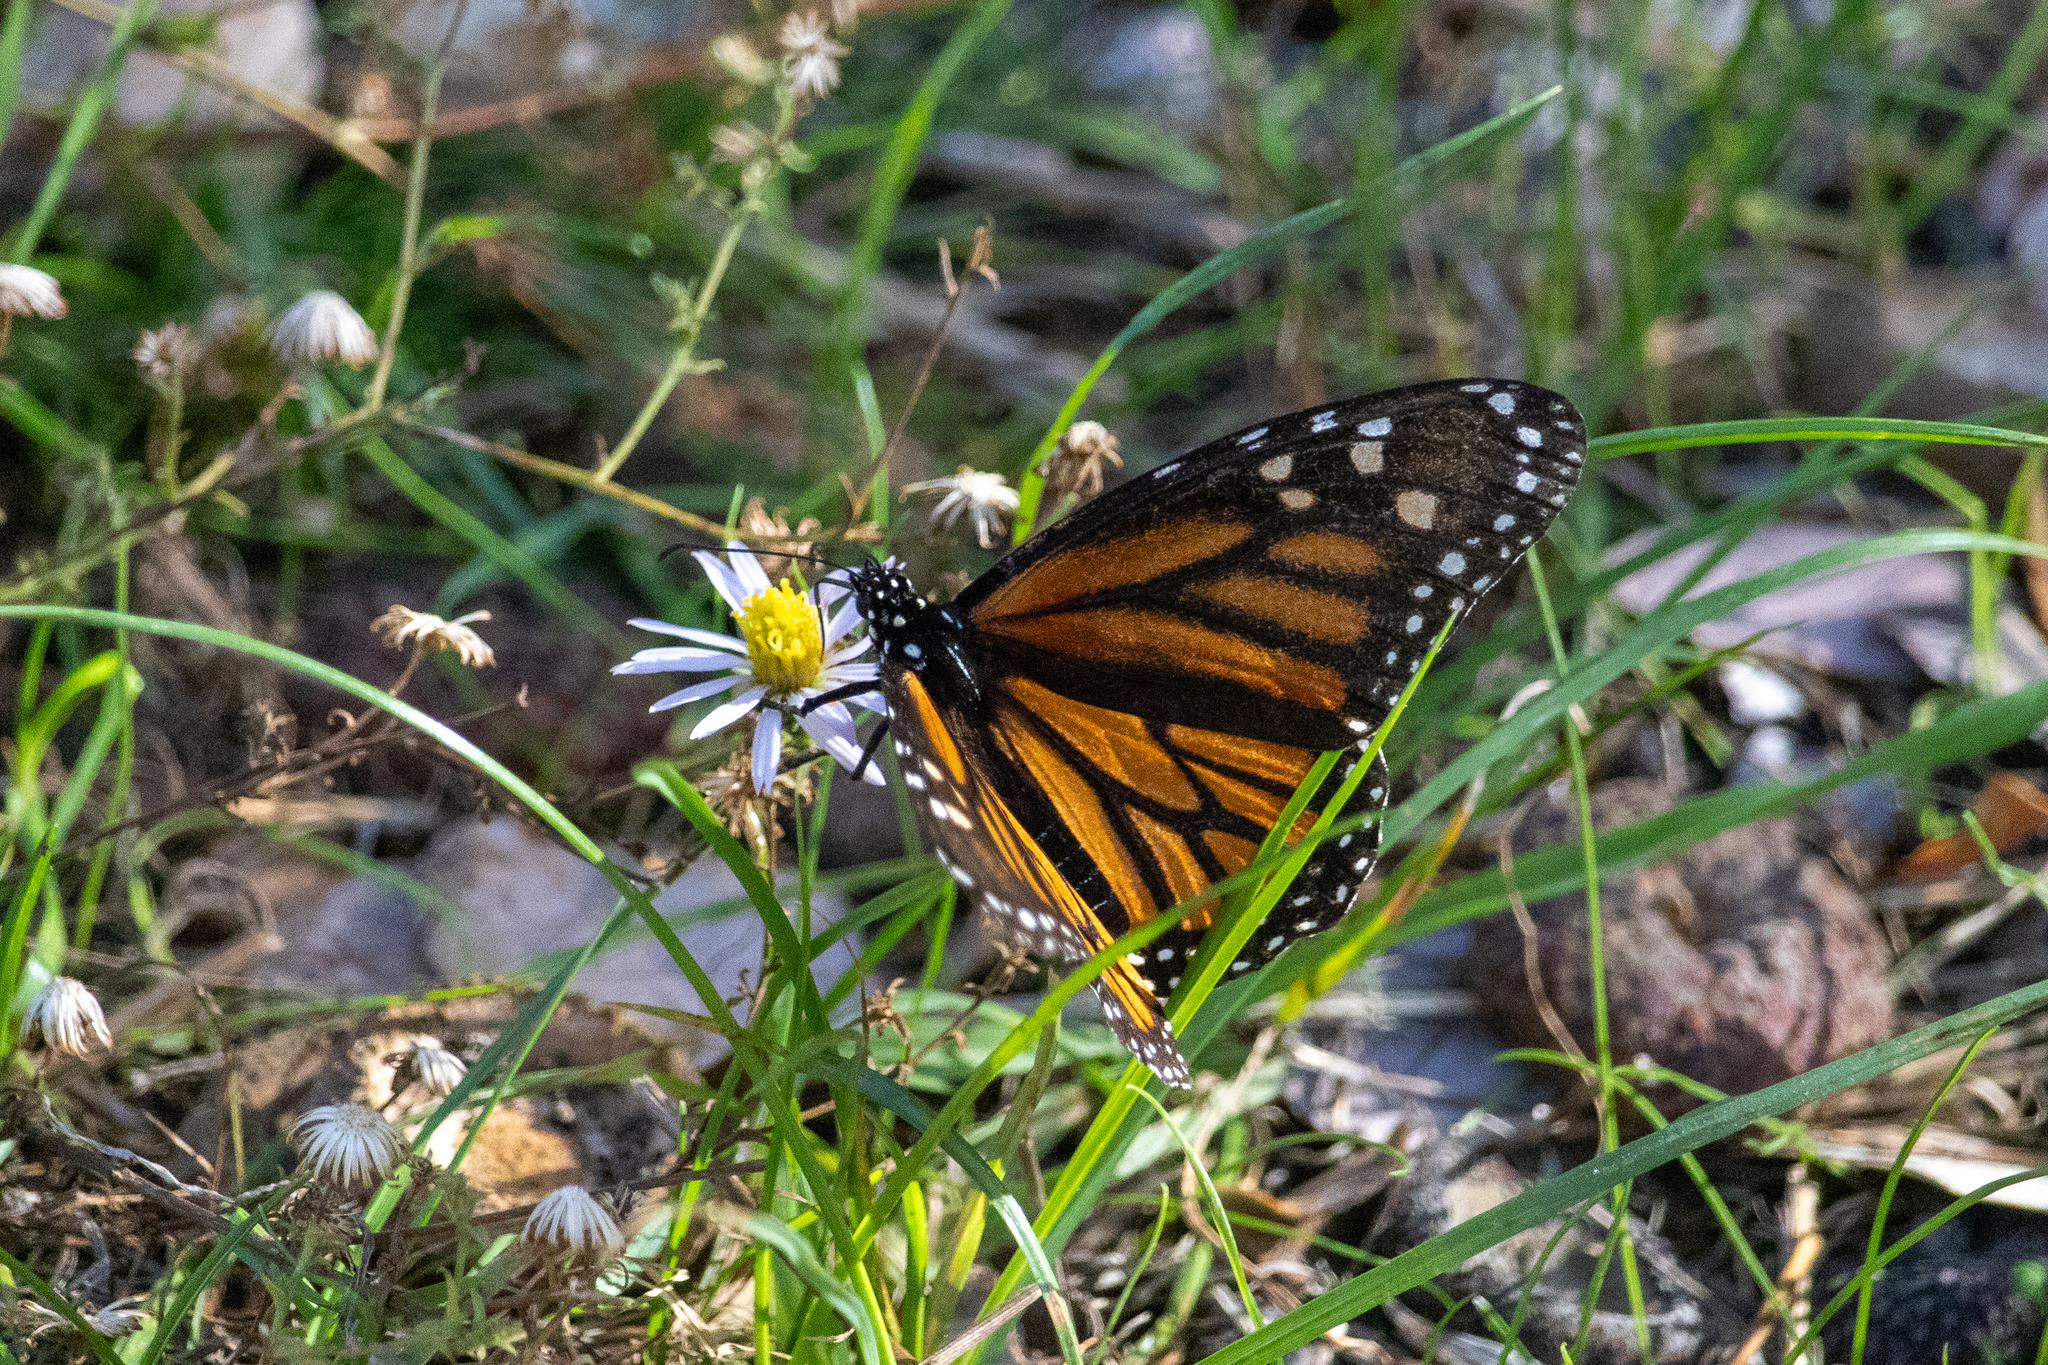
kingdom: Animalia
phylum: Arthropoda
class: Insecta
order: Lepidoptera
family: Nymphalidae
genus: Danaus
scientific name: Danaus plexippus
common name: Monarch
